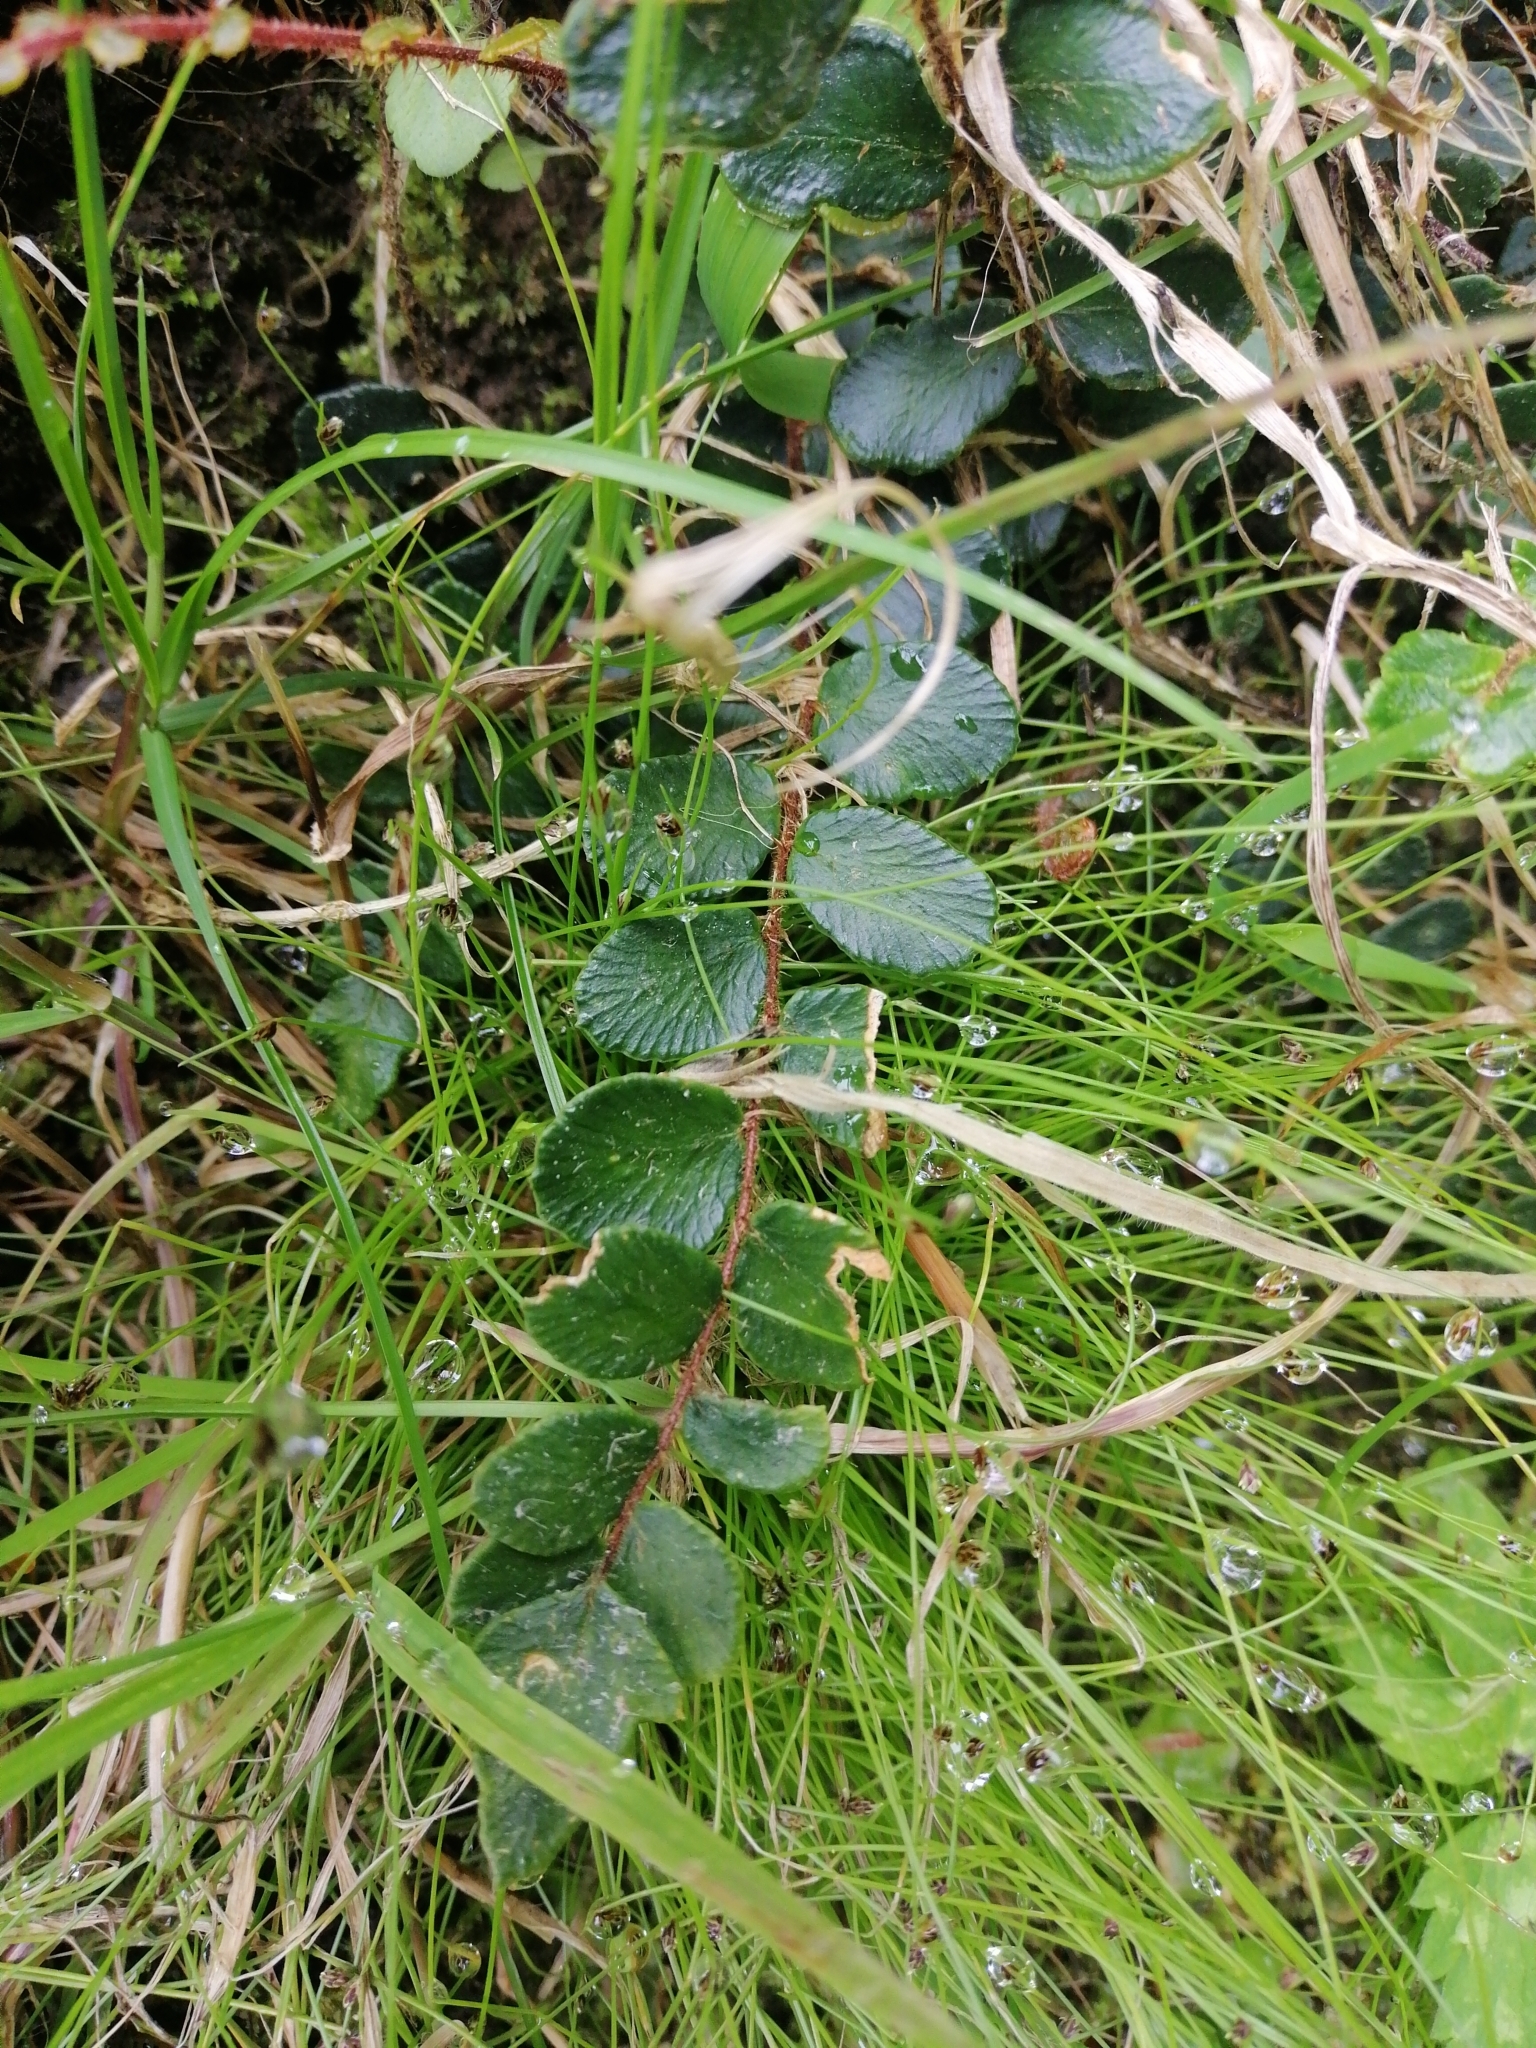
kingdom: Plantae
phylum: Tracheophyta
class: Polypodiopsida
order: Polypodiales
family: Pteridaceae
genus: Pellaea
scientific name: Pellaea rotundifolia
